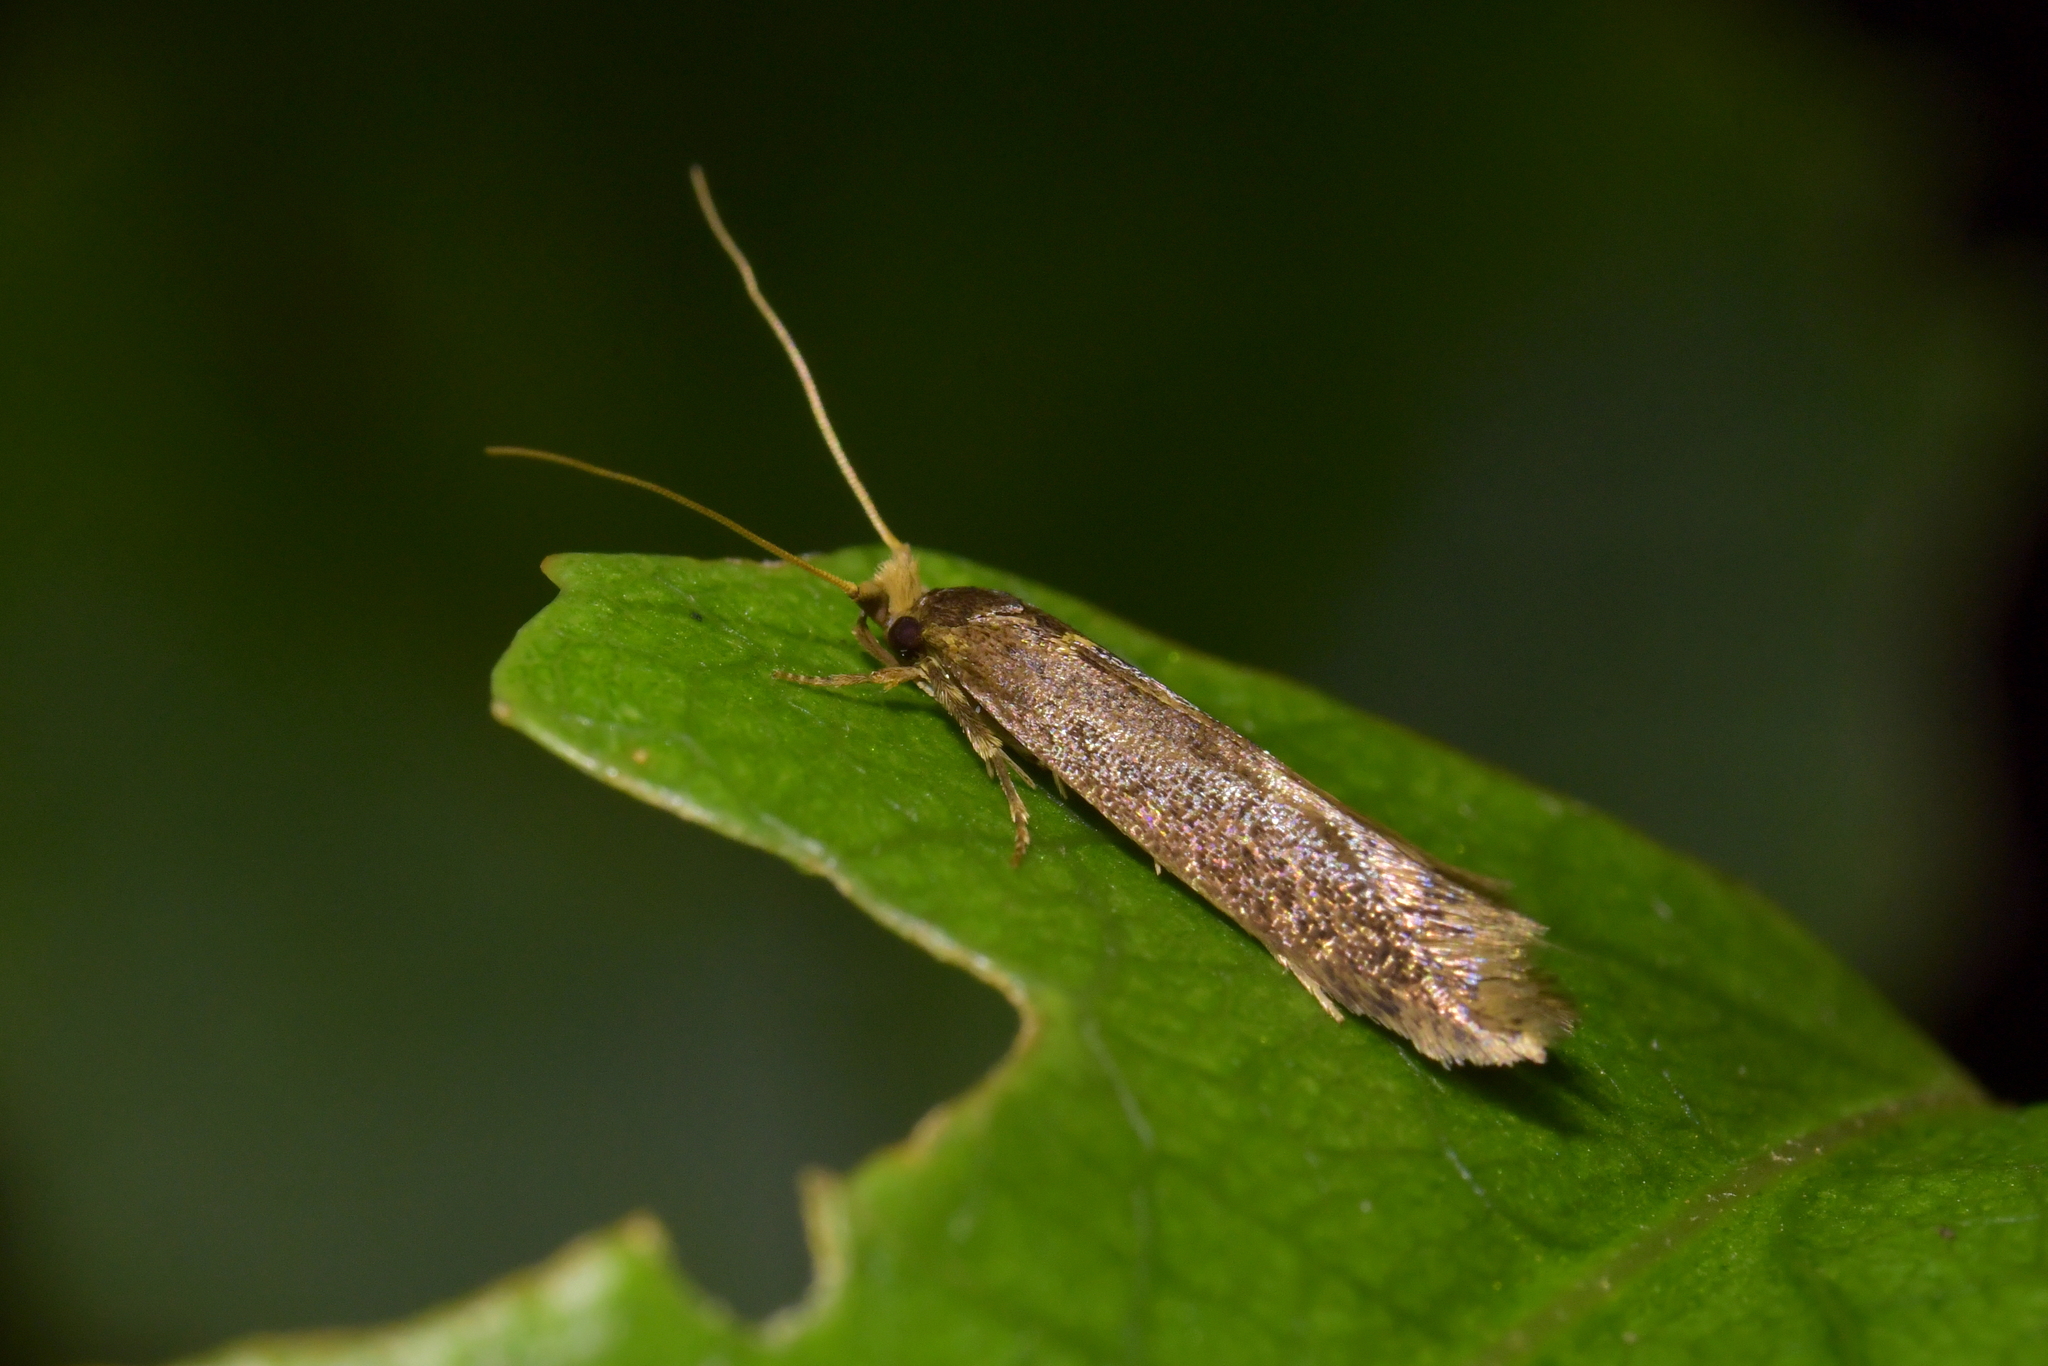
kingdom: Animalia
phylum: Arthropoda
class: Insecta
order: Lepidoptera
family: Tineidae
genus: Opogona
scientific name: Opogona omoscopa
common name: Moth
